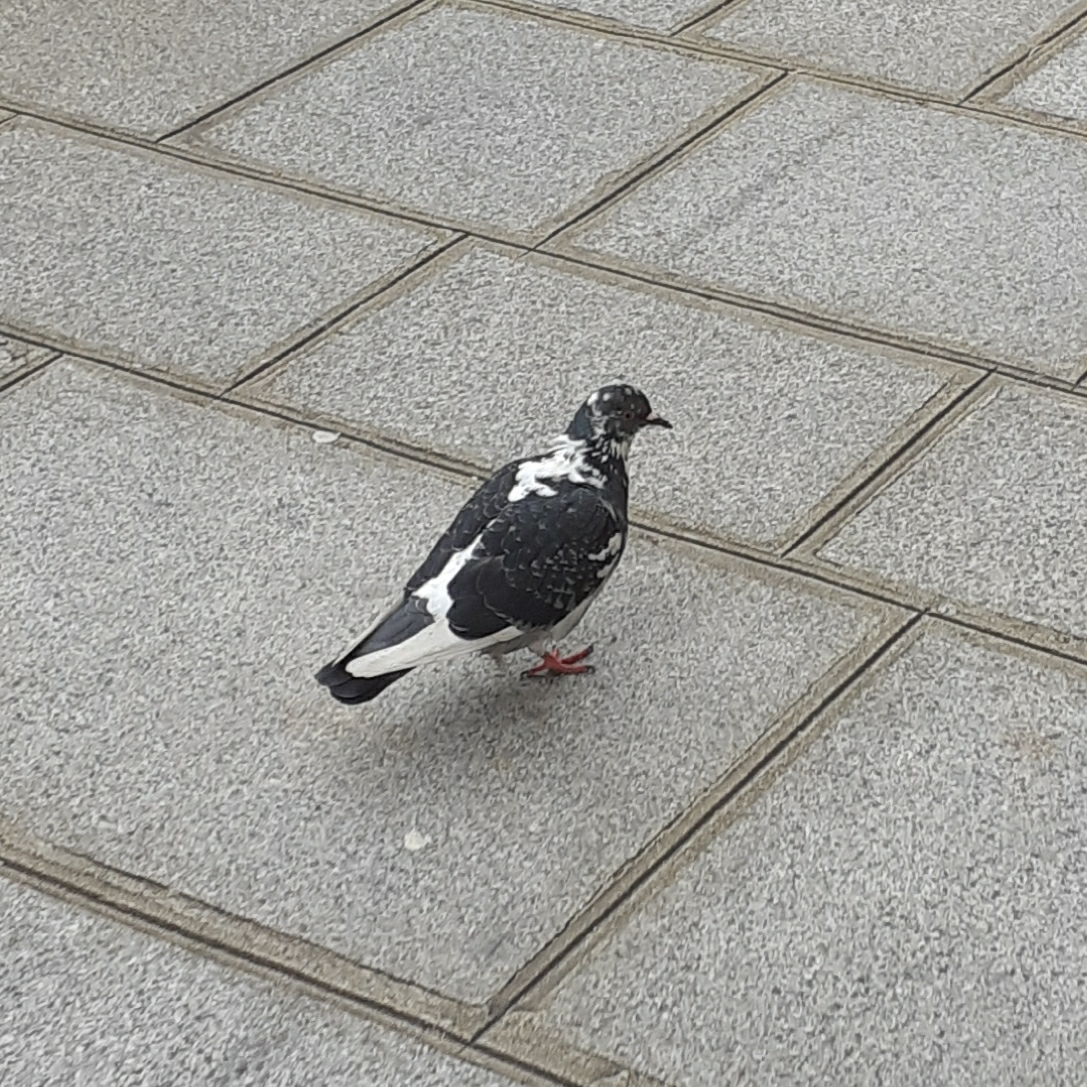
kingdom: Animalia
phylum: Chordata
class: Aves
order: Columbiformes
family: Columbidae
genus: Columba
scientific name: Columba livia
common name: Rock pigeon
